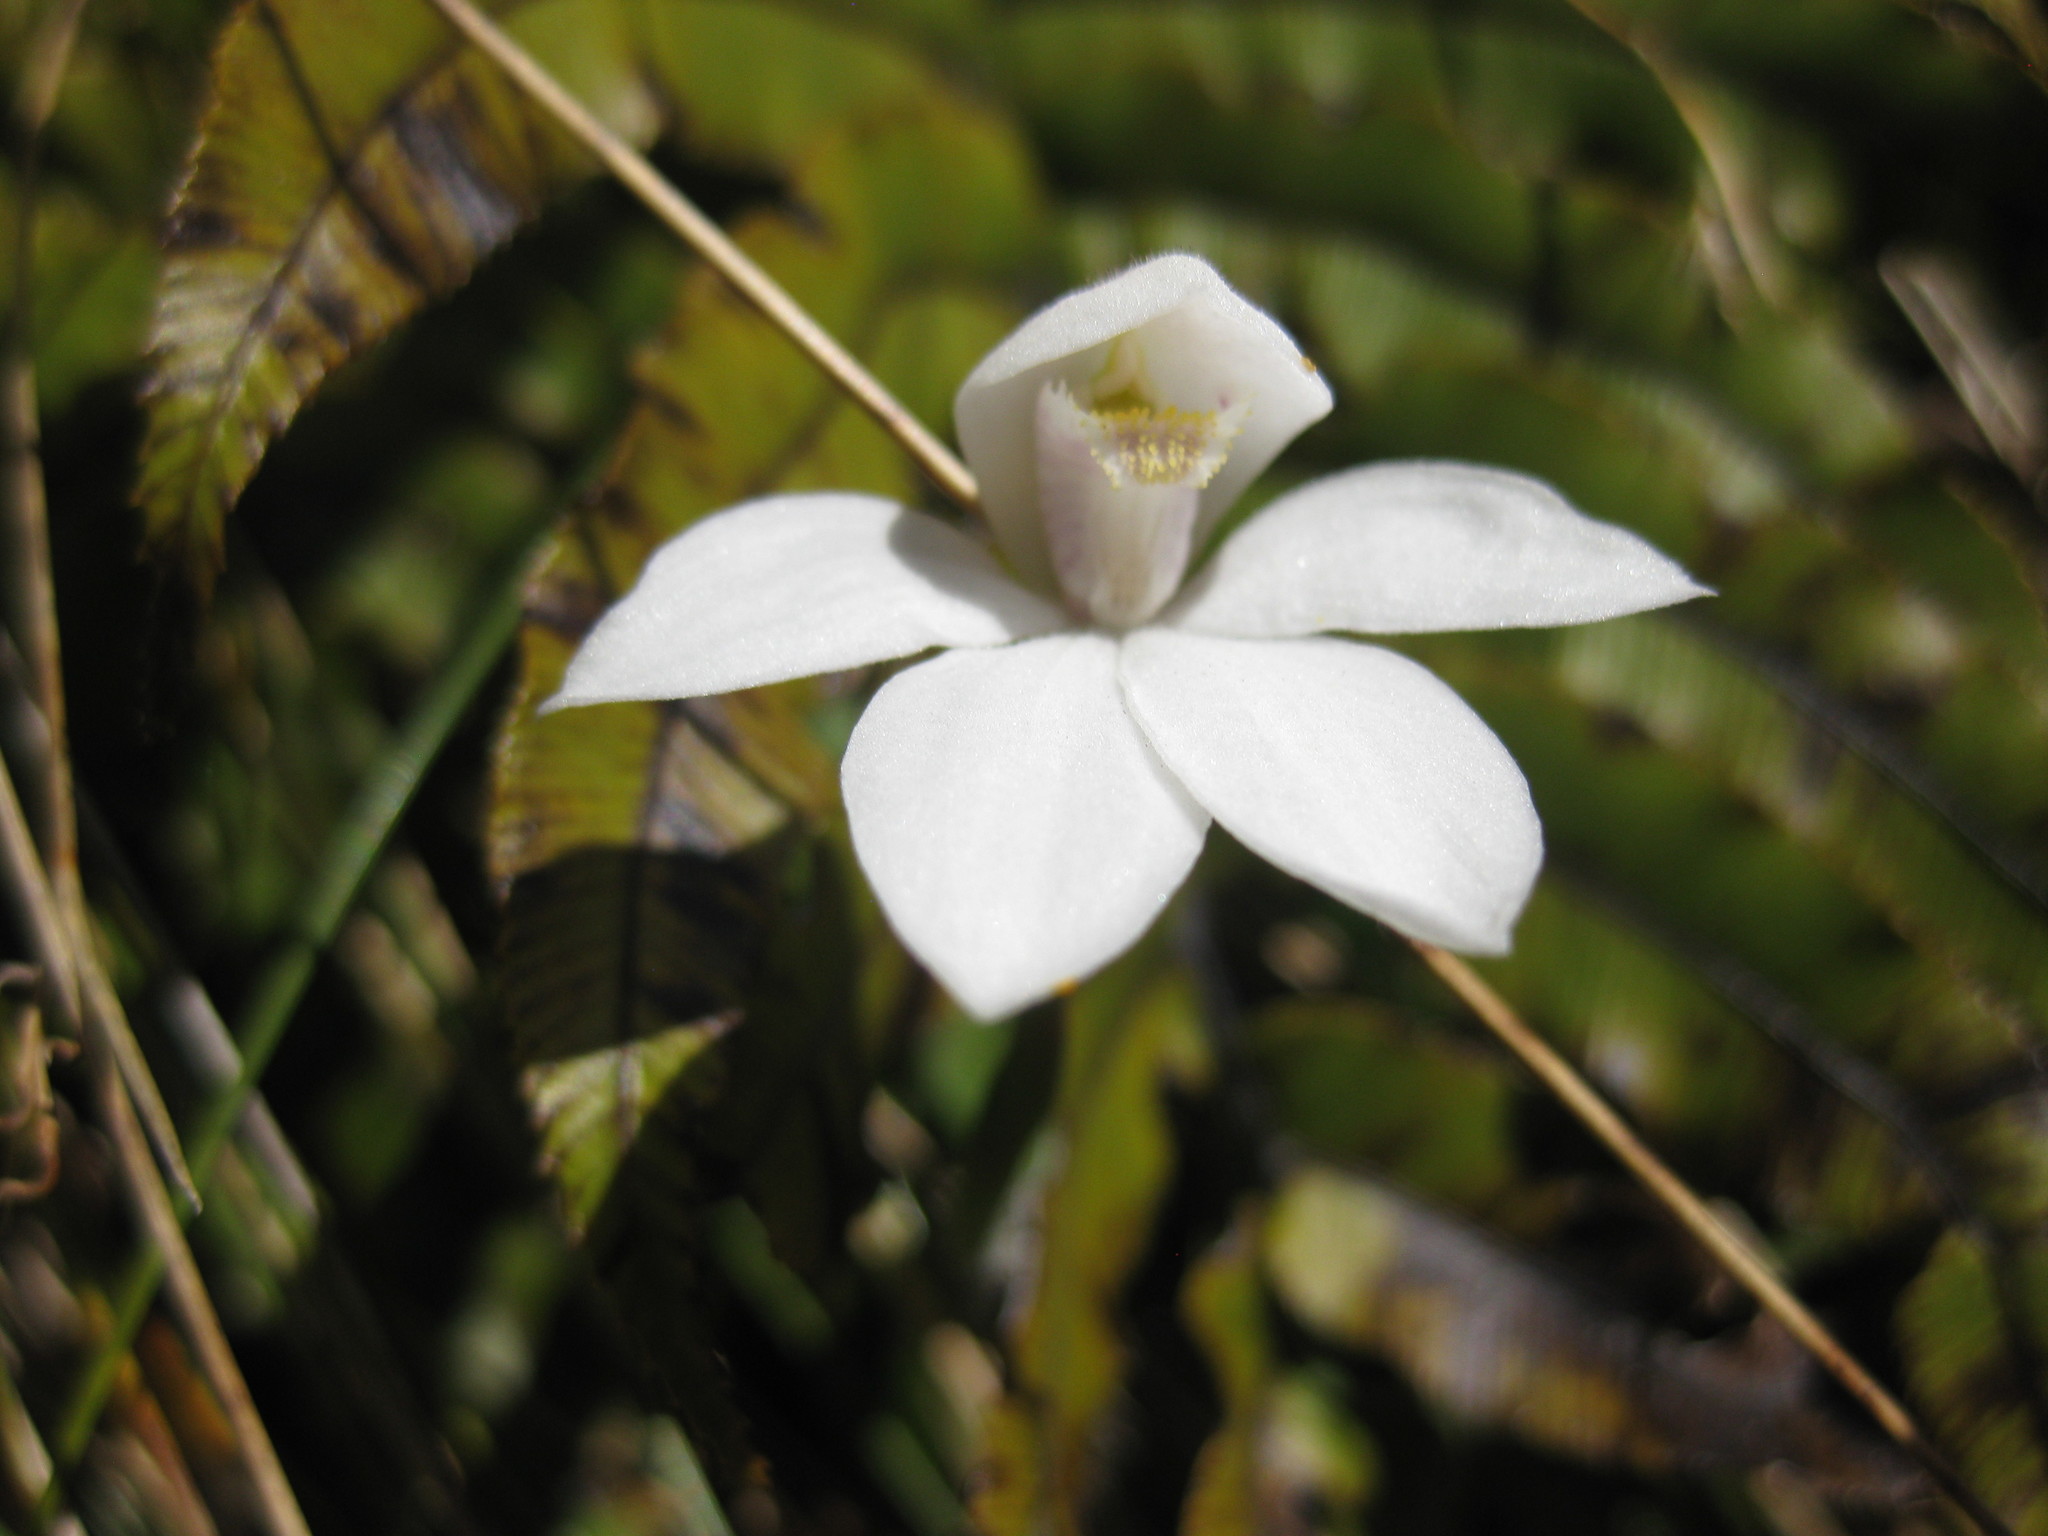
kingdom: Plantae
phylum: Tracheophyta
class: Liliopsida
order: Asparagales
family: Orchidaceae
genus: Caladenia
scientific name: Caladenia lyallii
